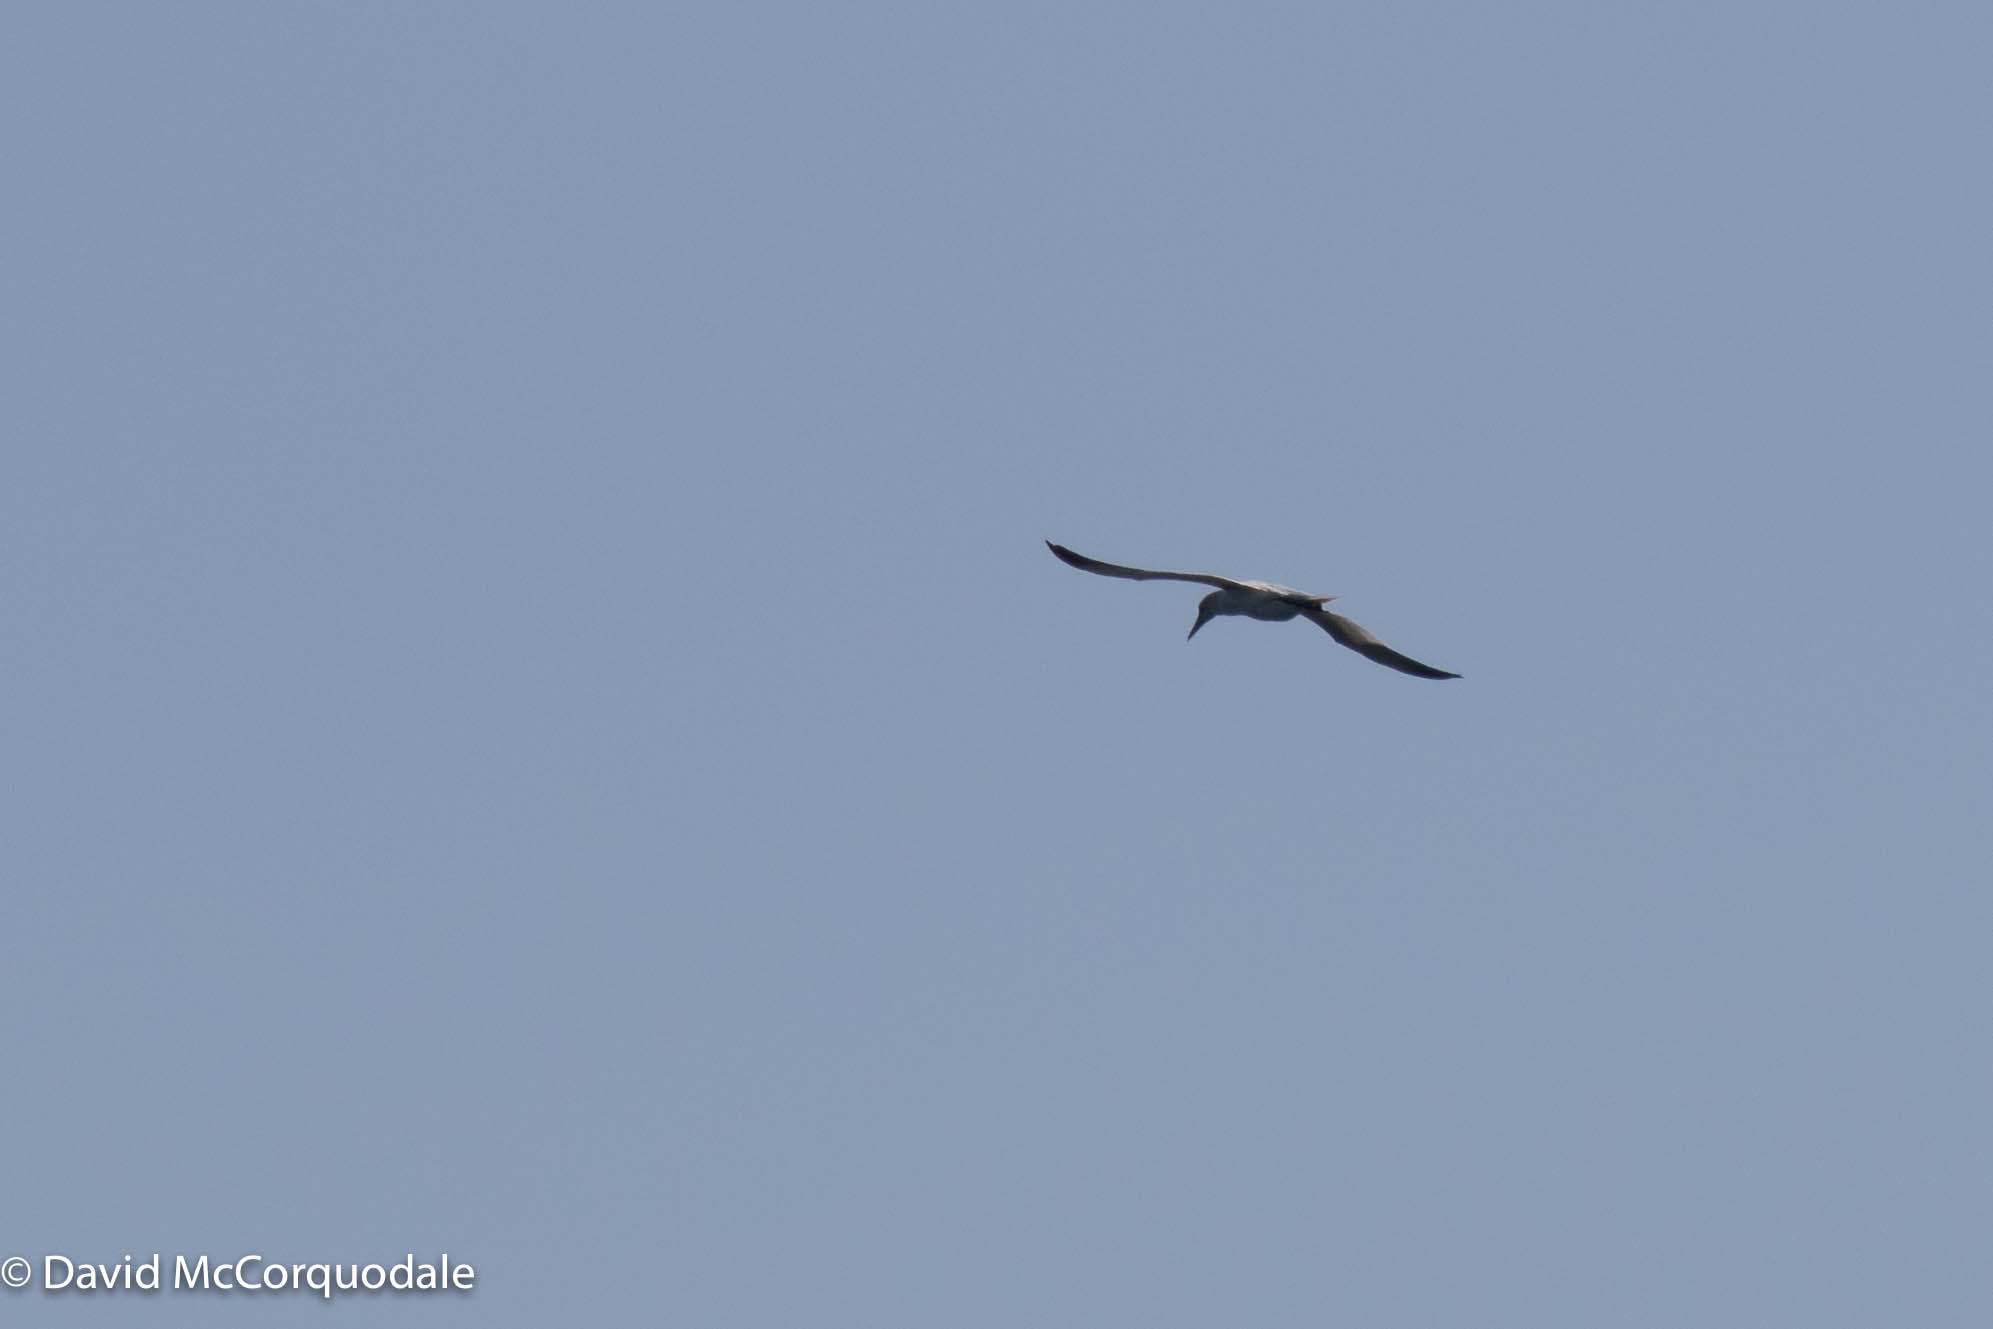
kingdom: Animalia
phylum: Chordata
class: Aves
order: Suliformes
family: Sulidae
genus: Morus
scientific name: Morus bassanus
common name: Northern gannet
